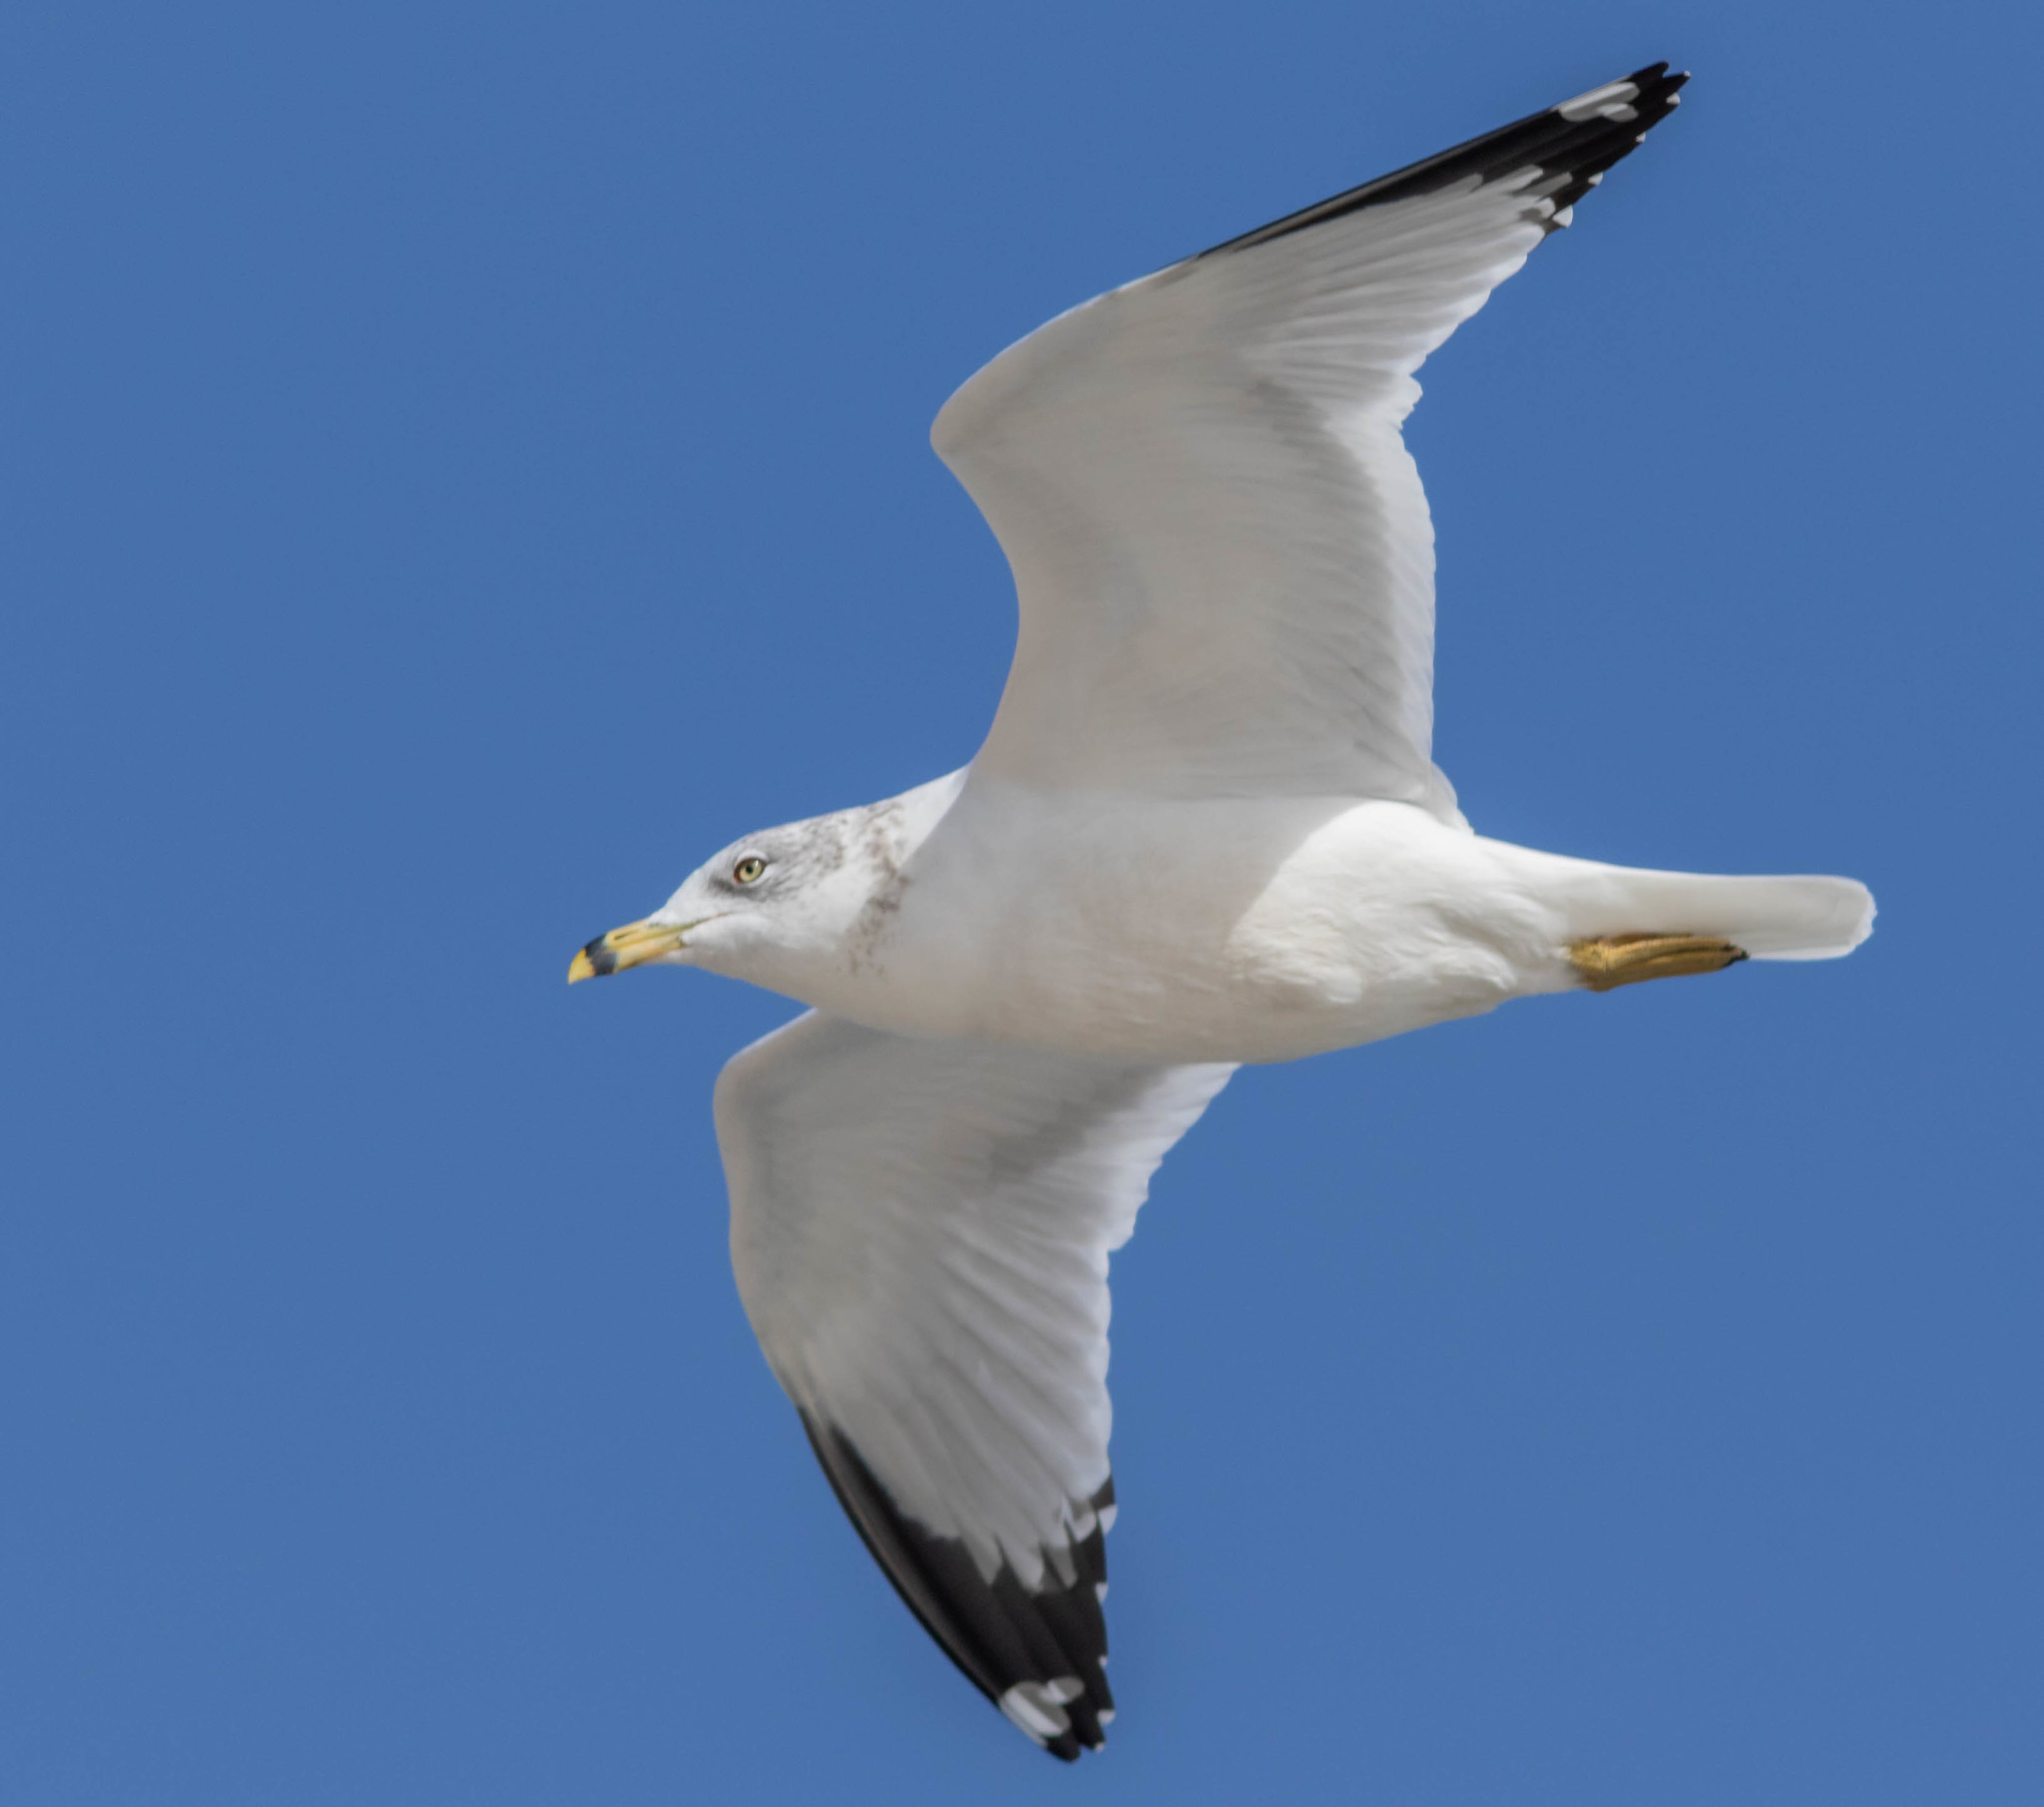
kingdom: Animalia
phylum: Chordata
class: Aves
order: Charadriiformes
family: Laridae
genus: Larus
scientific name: Larus delawarensis
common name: Ring-billed gull
